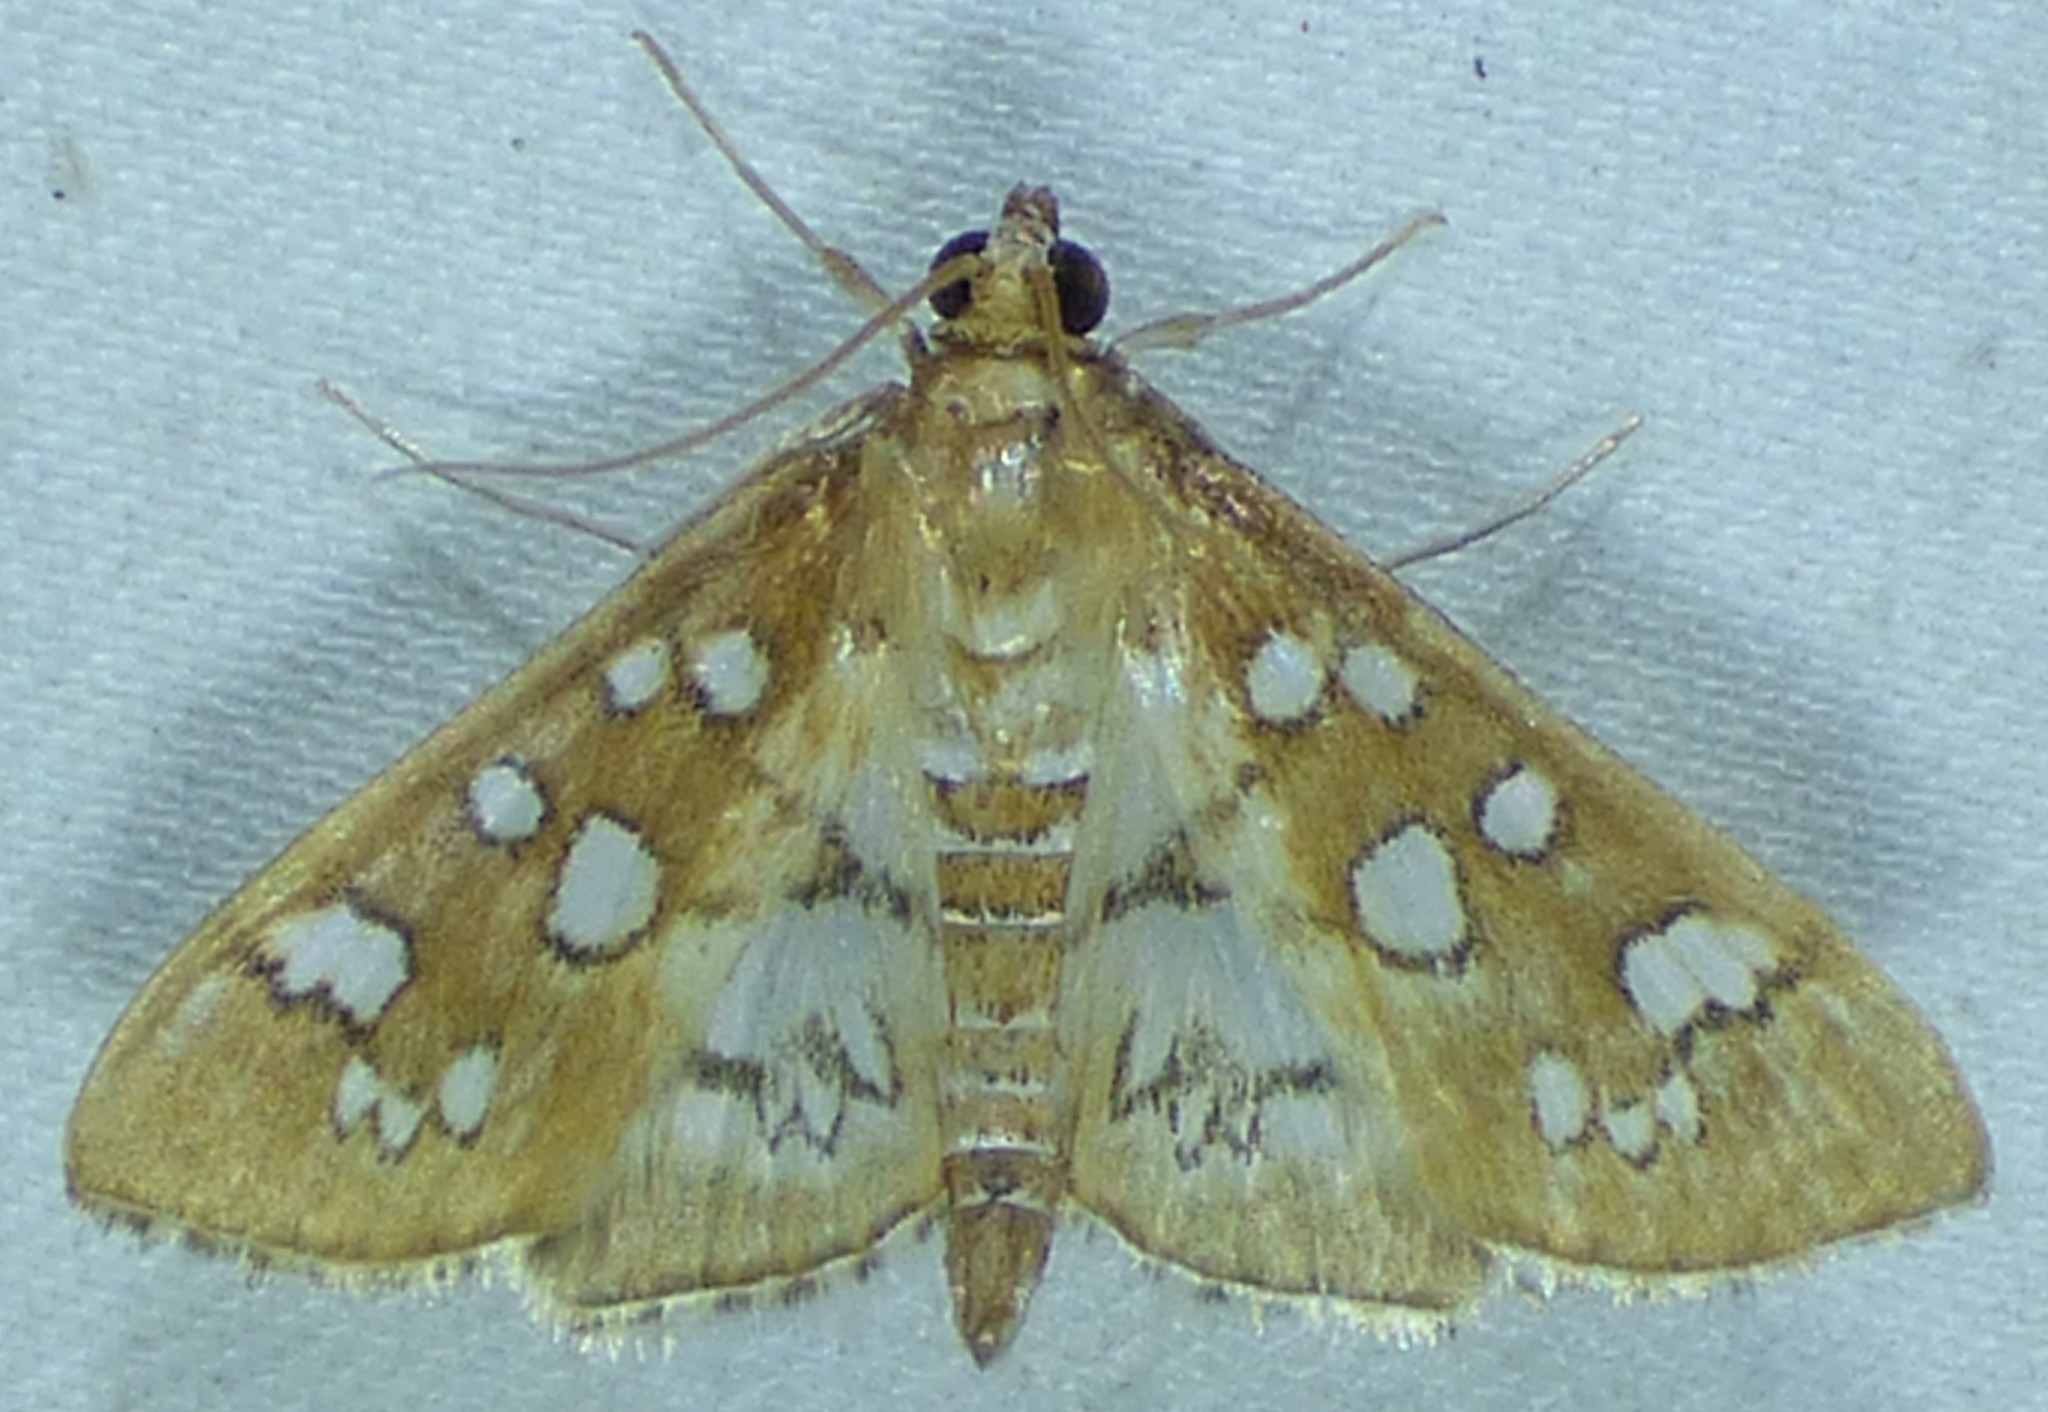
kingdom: Animalia
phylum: Arthropoda
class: Insecta
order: Lepidoptera
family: Crambidae
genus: Samea
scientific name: Samea baccatalis
